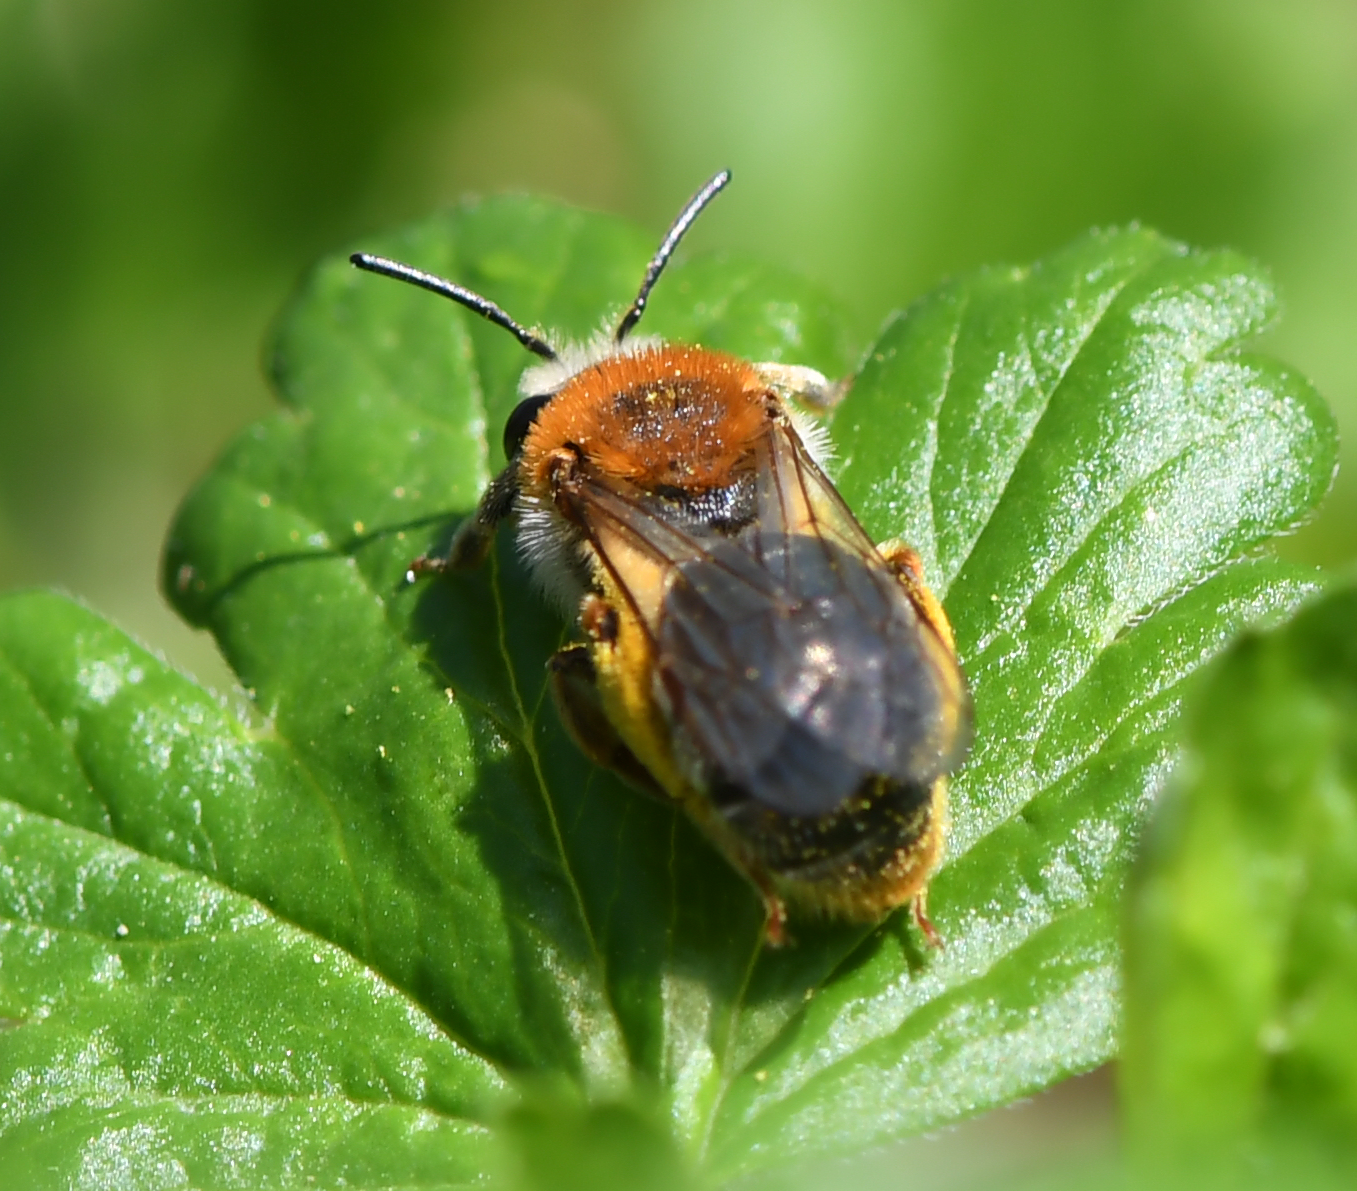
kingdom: Animalia
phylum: Arthropoda
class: Insecta
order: Hymenoptera
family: Andrenidae
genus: Andrena
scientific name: Andrena haemorrhoa
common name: Early mining bee
